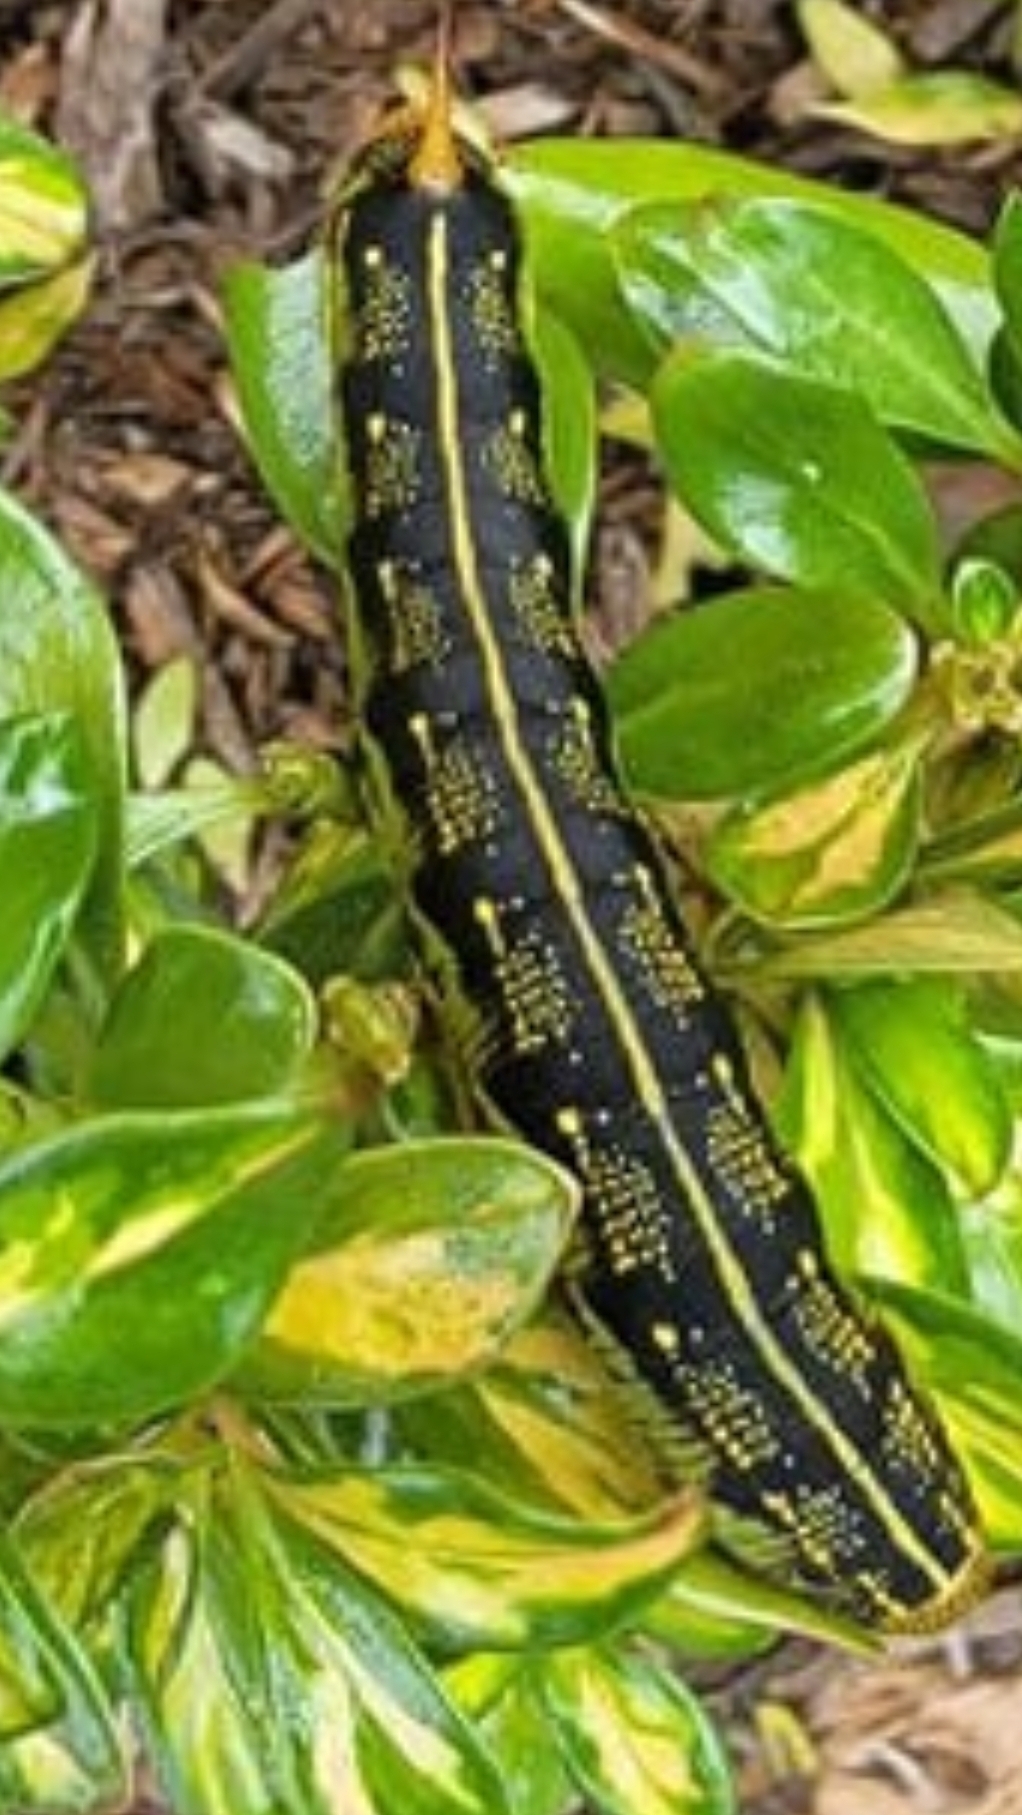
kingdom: Animalia
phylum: Arthropoda
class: Insecta
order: Lepidoptera
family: Sphingidae
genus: Hyles
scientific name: Hyles lineata
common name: White-lined sphinx
